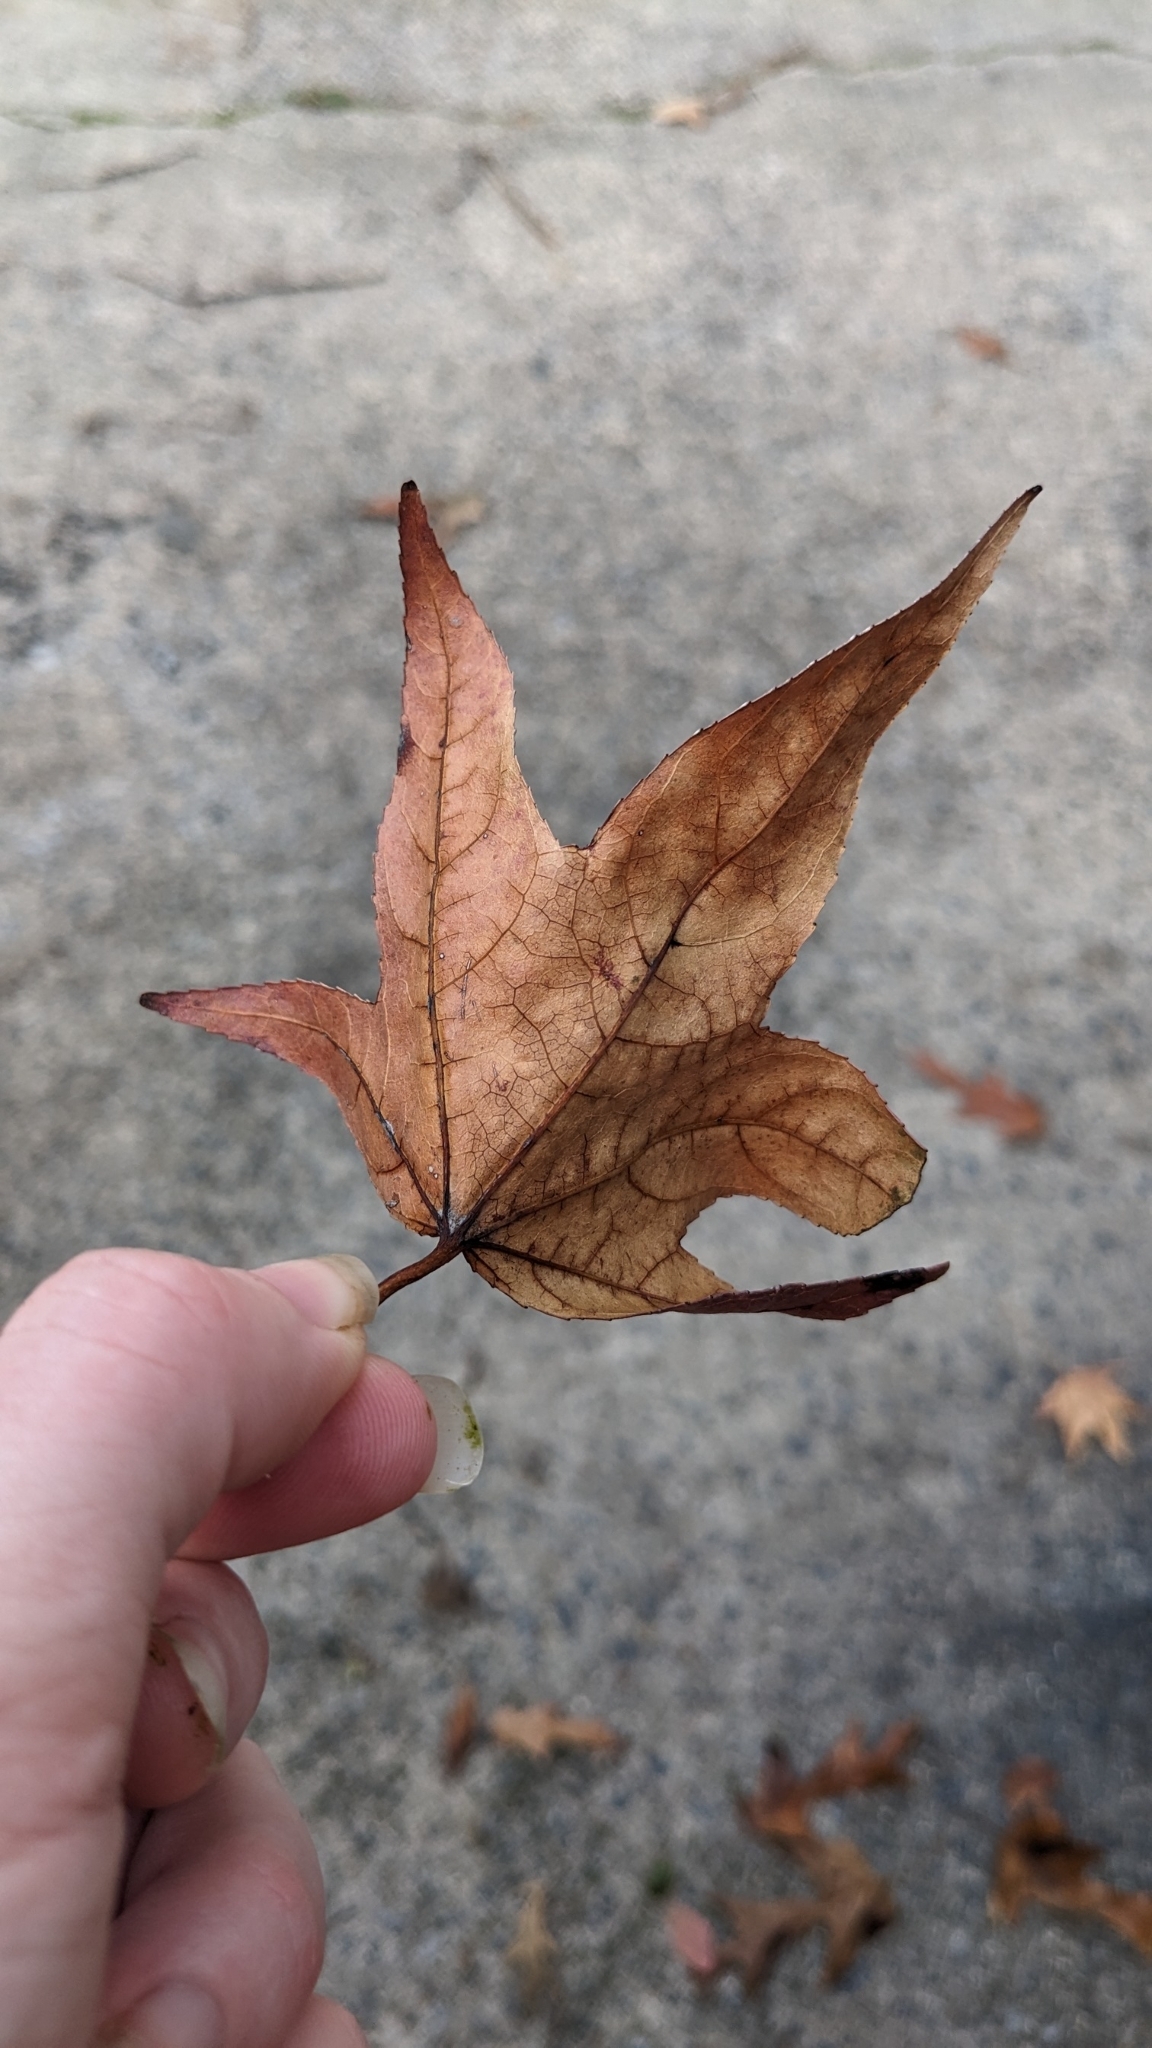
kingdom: Plantae
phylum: Tracheophyta
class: Magnoliopsida
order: Saxifragales
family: Altingiaceae
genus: Liquidambar
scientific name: Liquidambar styraciflua
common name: Sweet gum
